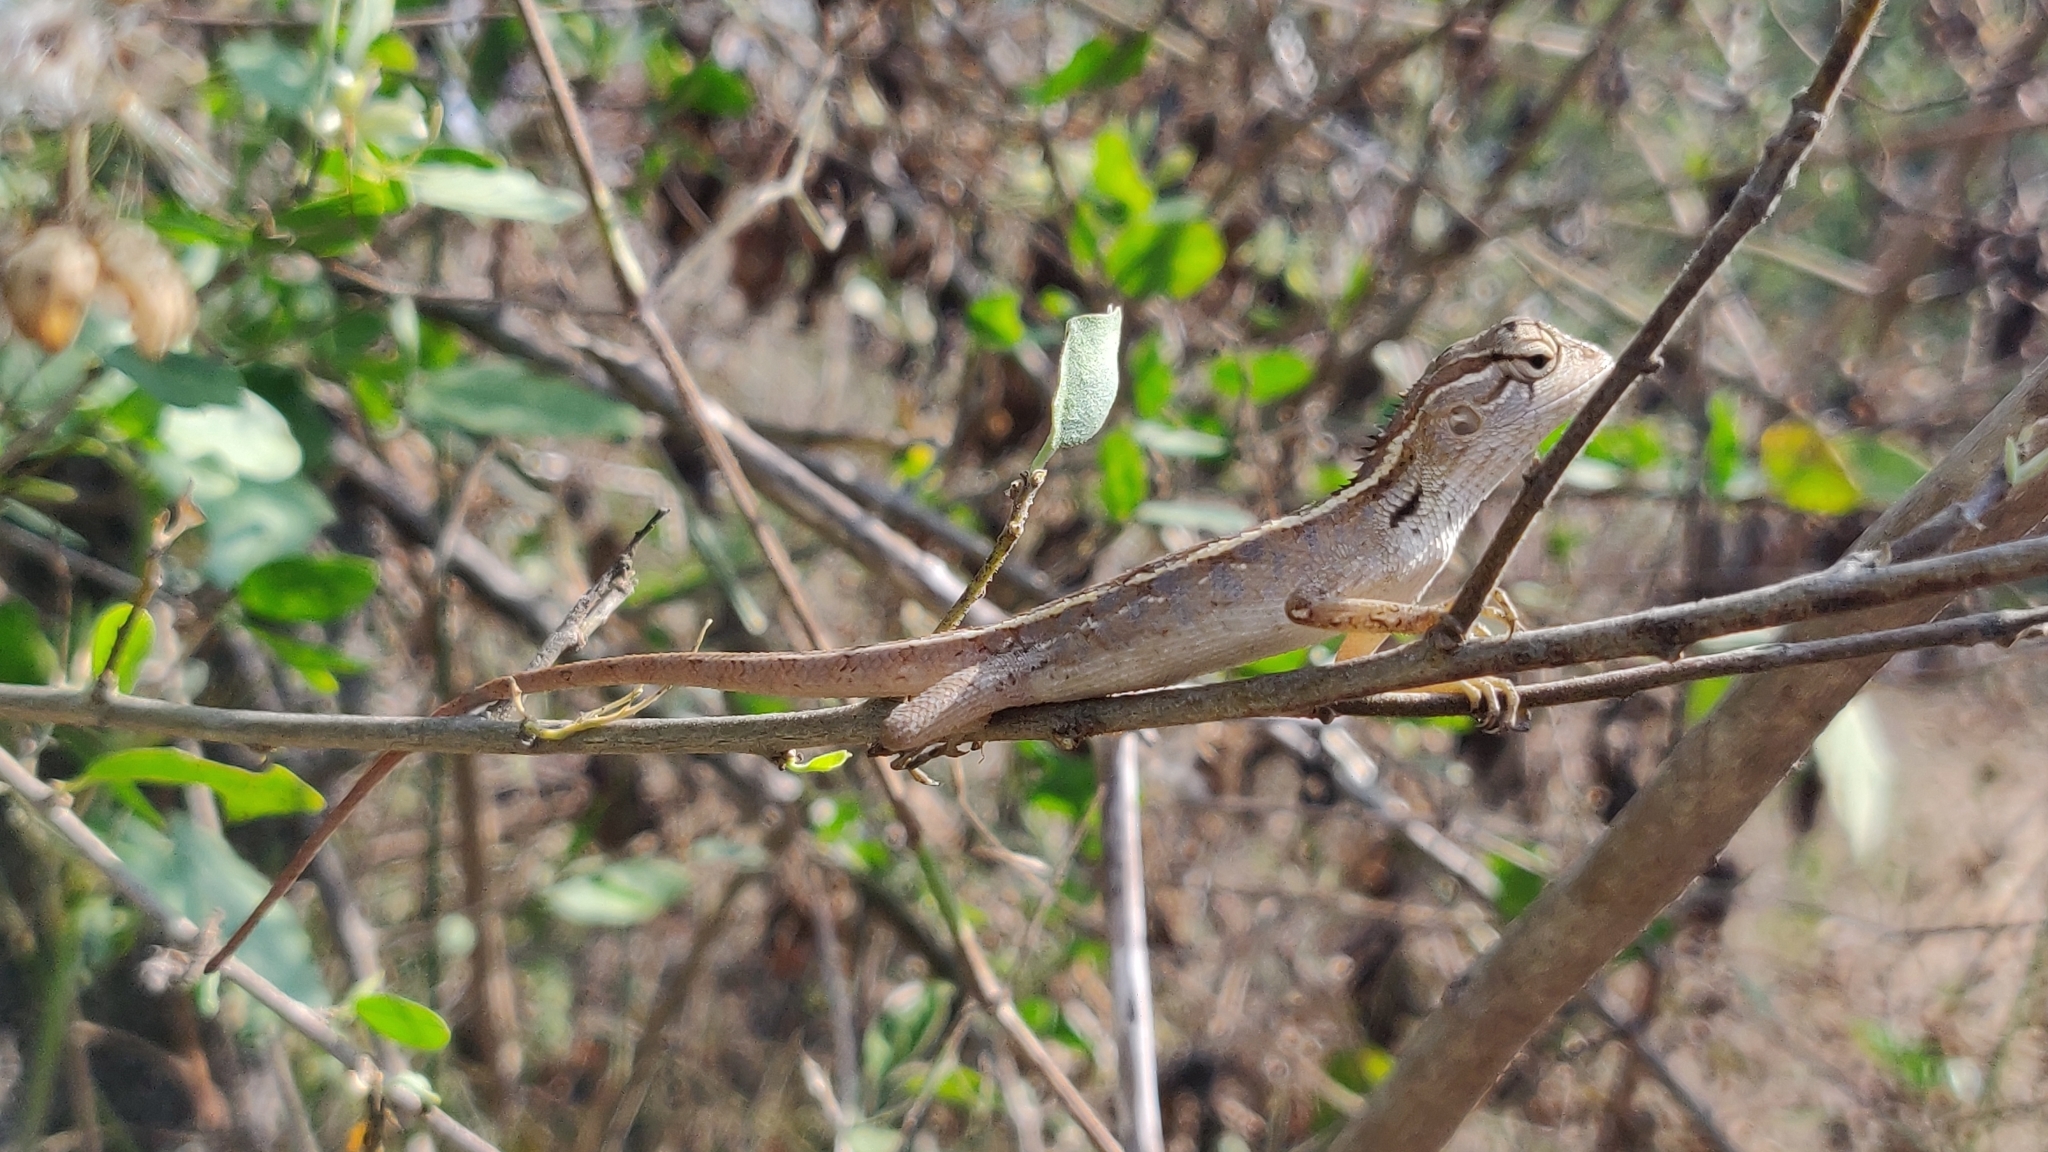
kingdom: Animalia
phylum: Chordata
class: Squamata
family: Agamidae
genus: Calotes
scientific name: Calotes versicolor
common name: Oriental garden lizard
